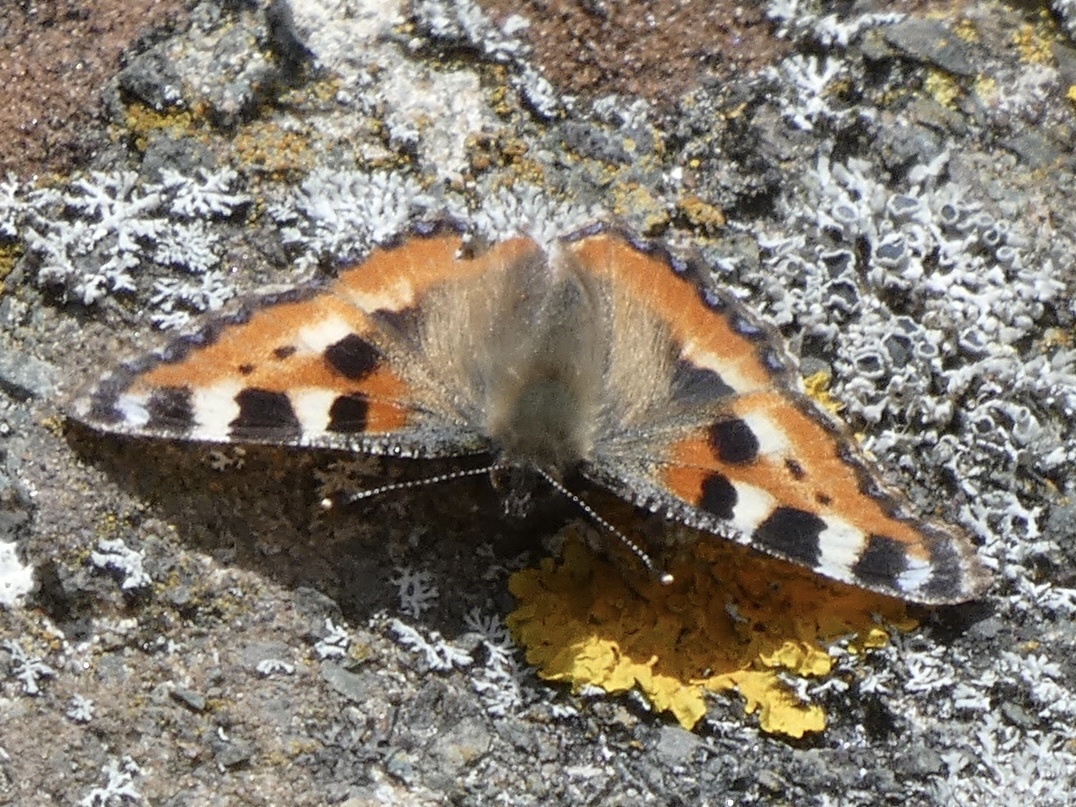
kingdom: Animalia
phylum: Arthropoda
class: Insecta
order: Lepidoptera
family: Nymphalidae
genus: Aglais
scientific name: Aglais urticae
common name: Small tortoiseshell
